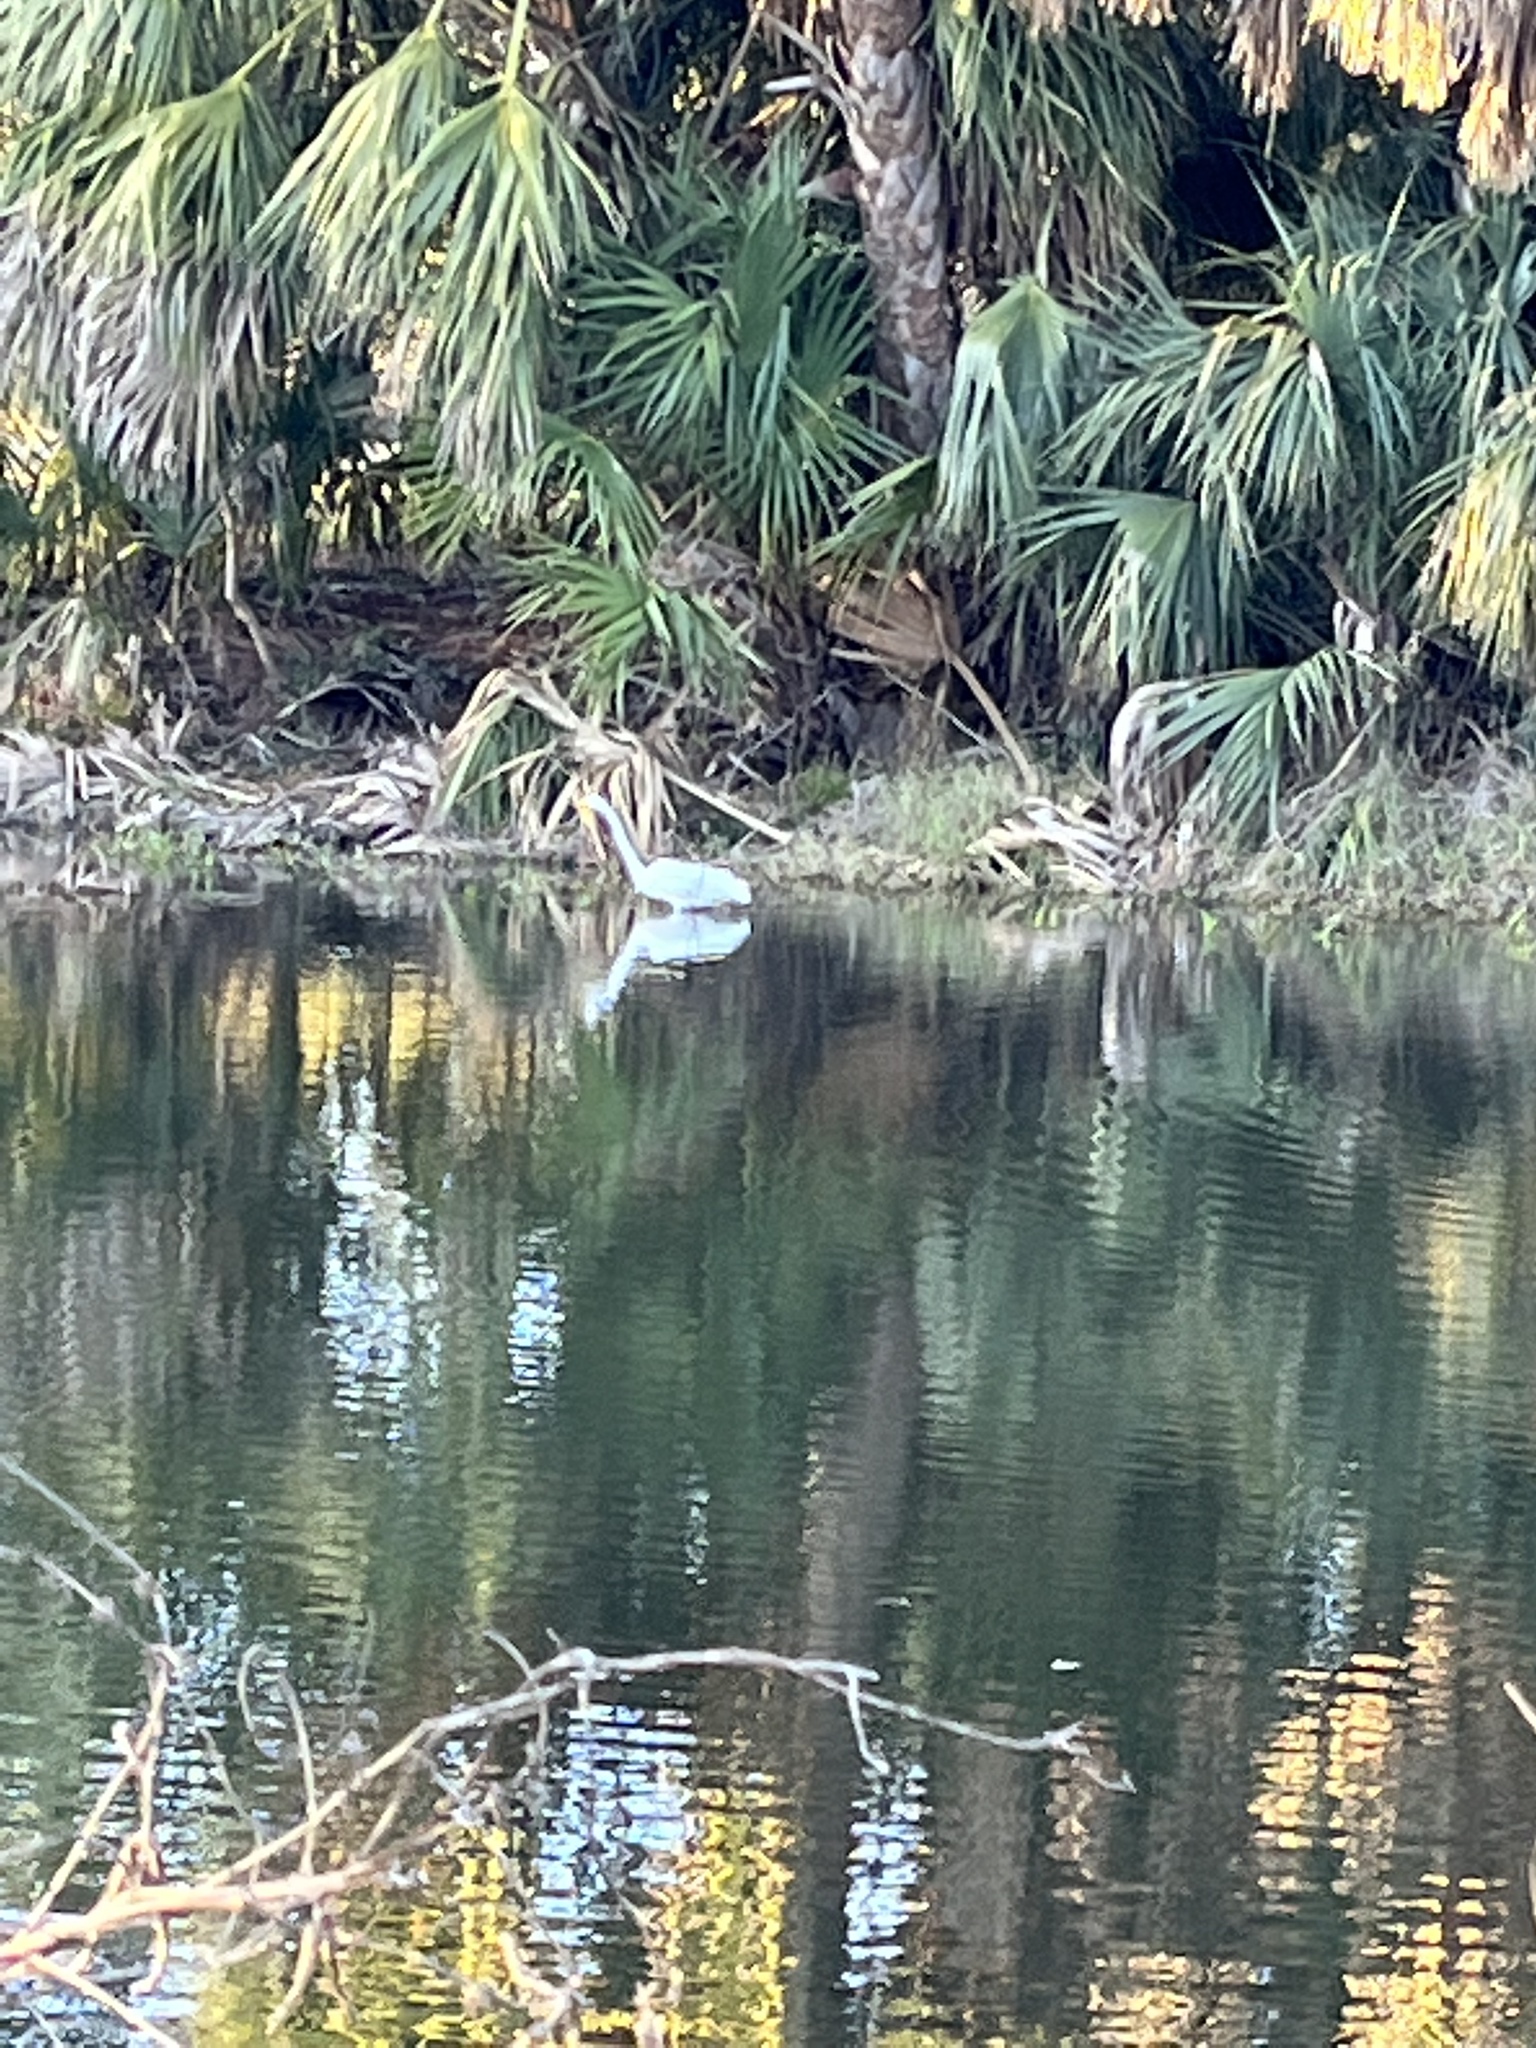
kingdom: Animalia
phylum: Chordata
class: Aves
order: Pelecaniformes
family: Ardeidae
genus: Ardea
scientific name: Ardea alba
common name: Great egret
